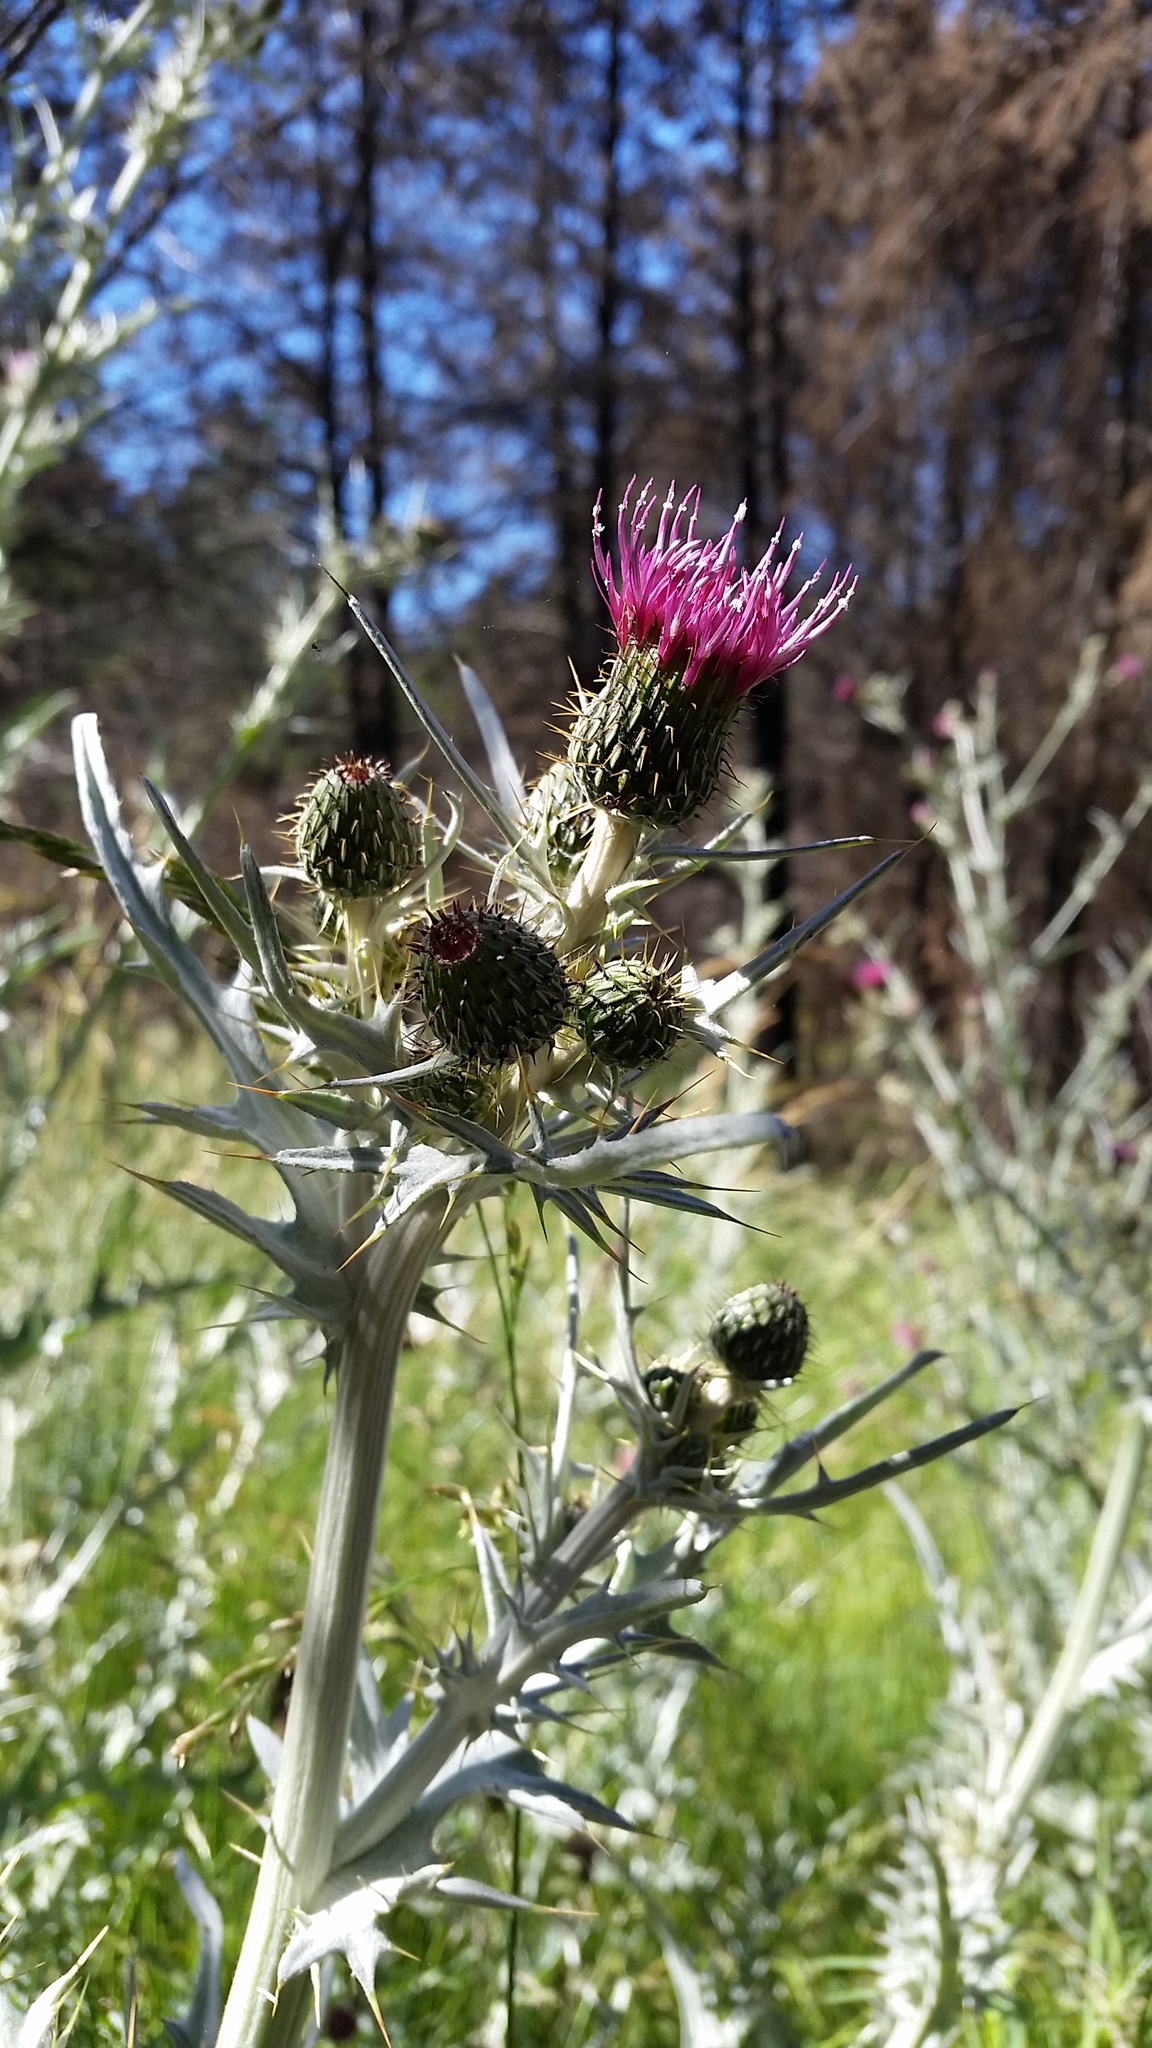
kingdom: Plantae
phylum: Tracheophyta
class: Magnoliopsida
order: Asterales
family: Asteraceae
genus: Cirsium
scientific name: Cirsium douglasii
